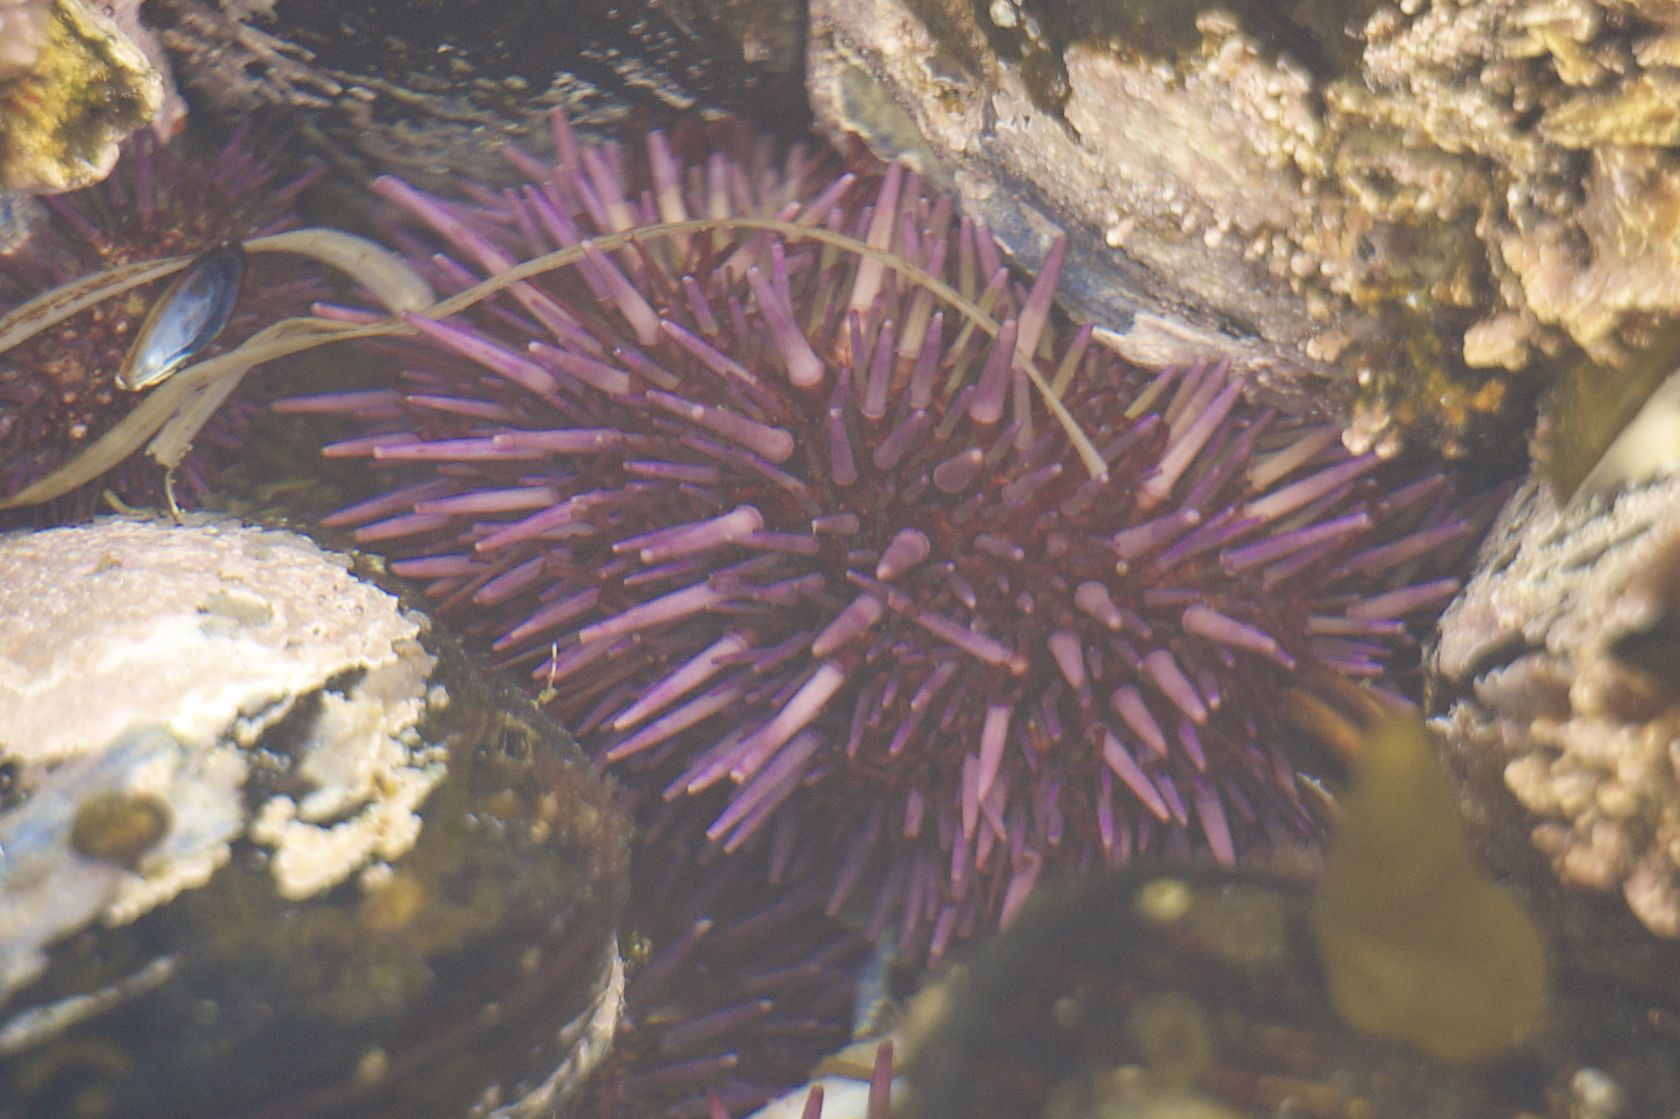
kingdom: Animalia
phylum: Echinodermata
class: Echinoidea
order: Camarodonta
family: Strongylocentrotidae
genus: Strongylocentrotus
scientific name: Strongylocentrotus purpuratus
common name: Purple sea urchin
